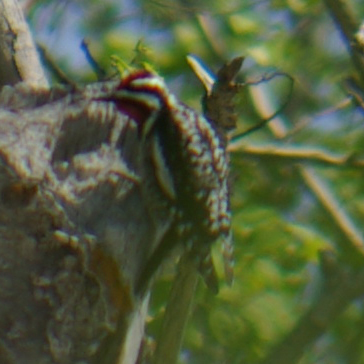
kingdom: Animalia
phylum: Chordata
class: Aves
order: Piciformes
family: Picidae
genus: Sphyrapicus
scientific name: Sphyrapicus varius
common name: Yellow-bellied sapsucker
